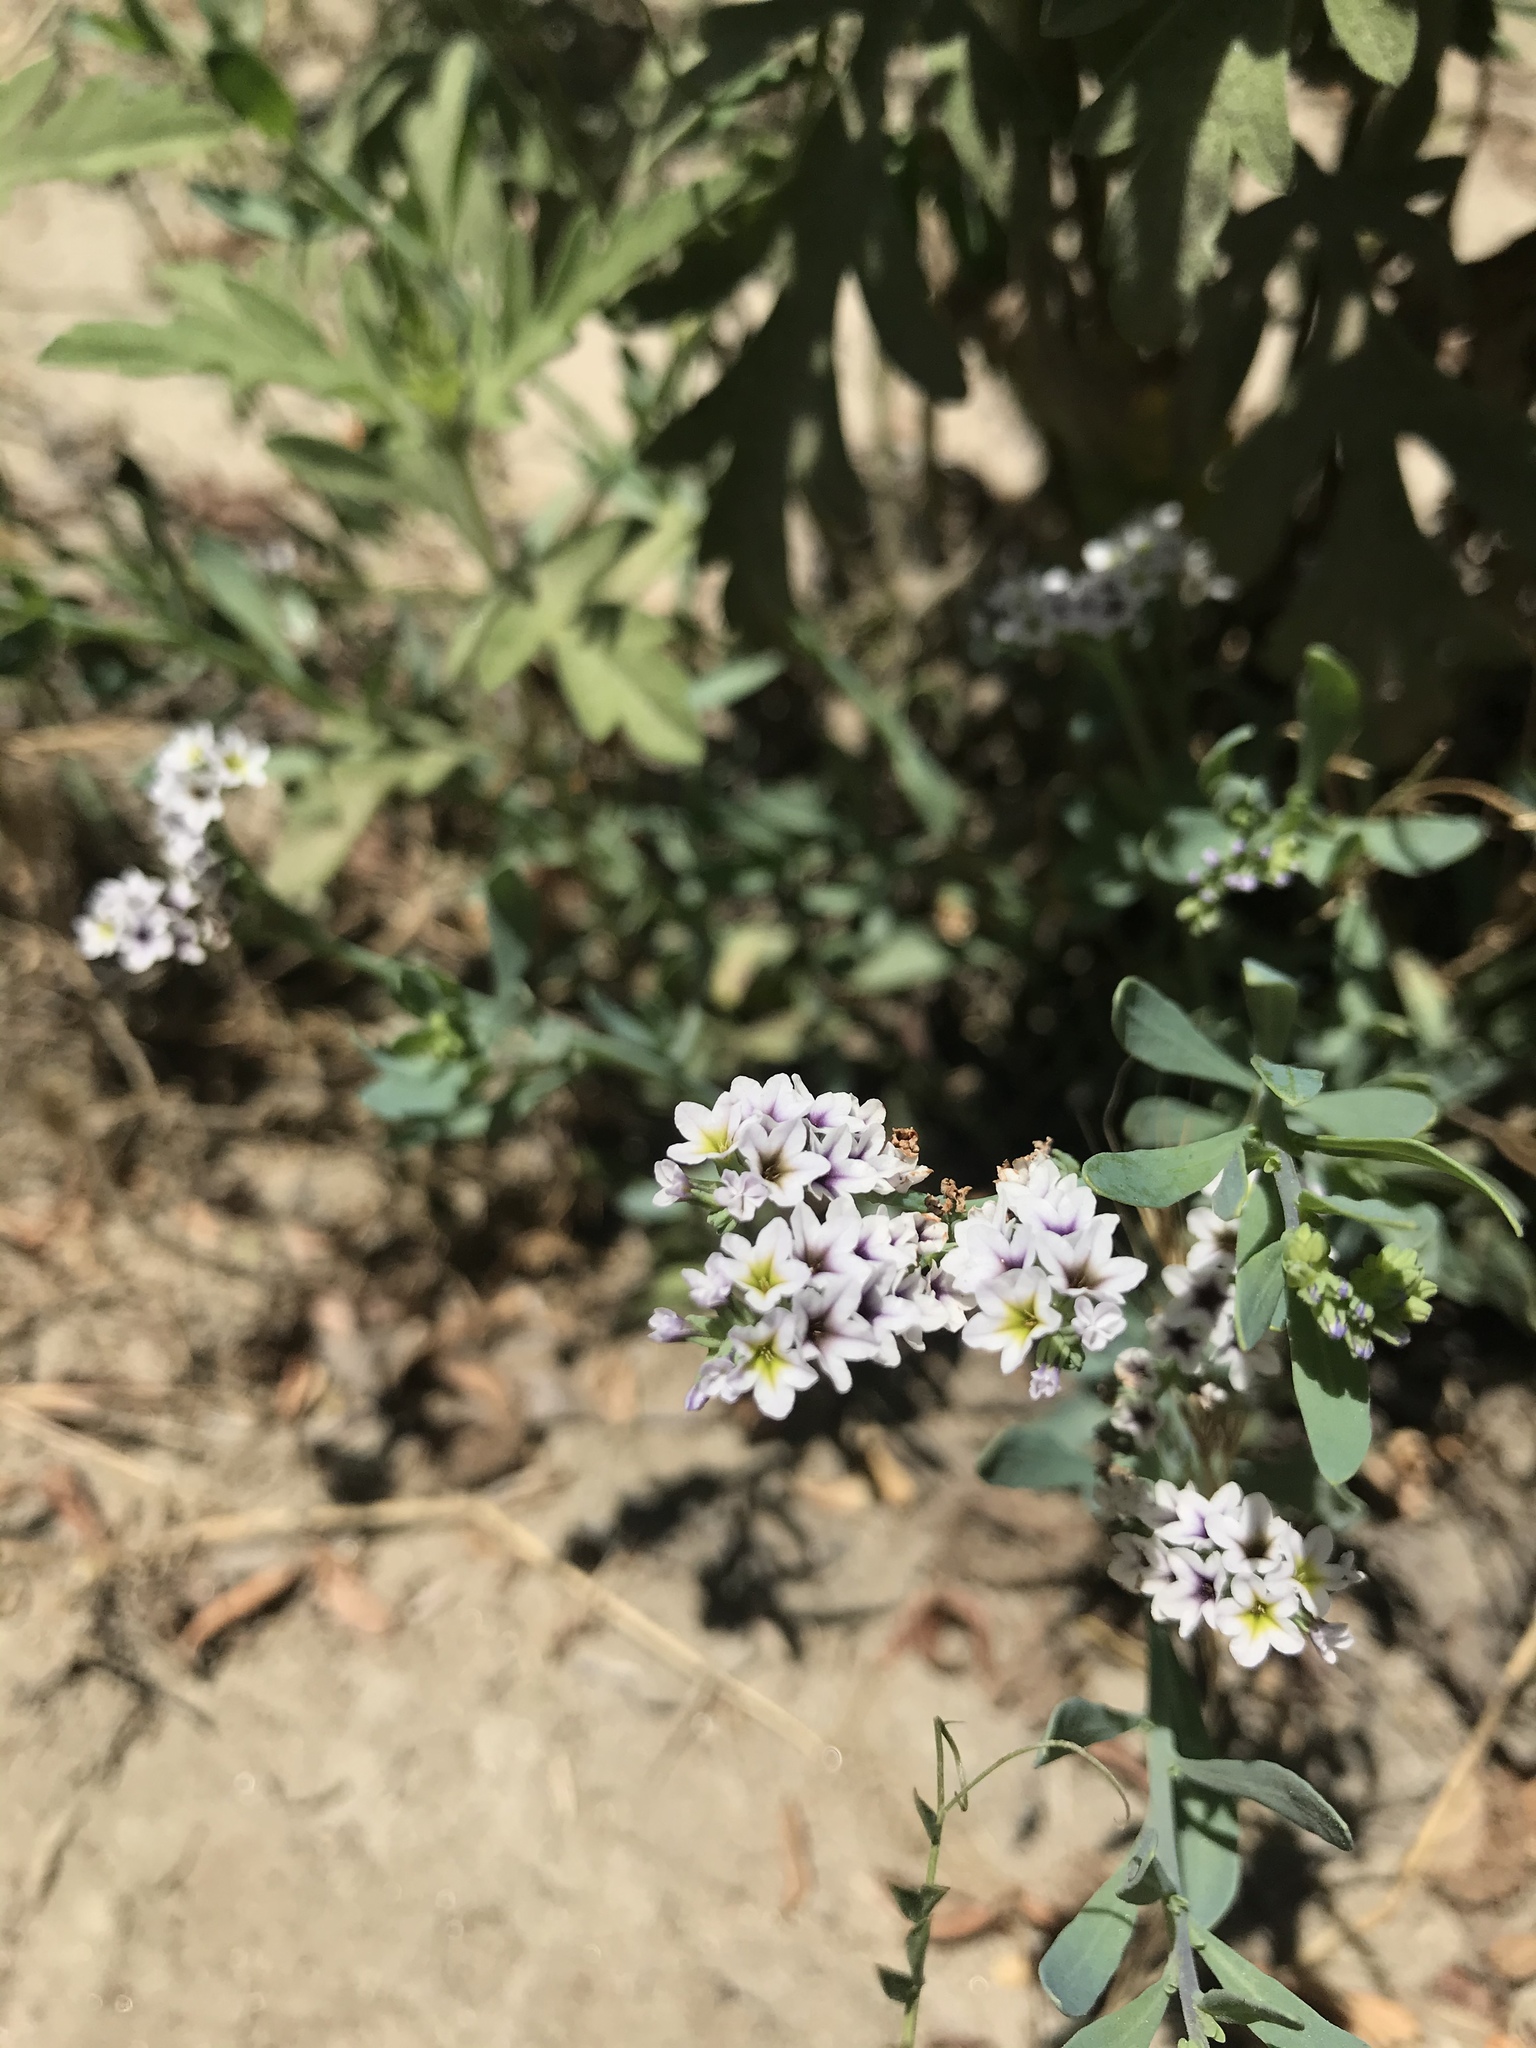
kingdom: Plantae
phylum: Tracheophyta
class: Magnoliopsida
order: Boraginales
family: Heliotropiaceae
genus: Heliotropium
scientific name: Heliotropium curassavicum
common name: Seaside heliotrope
